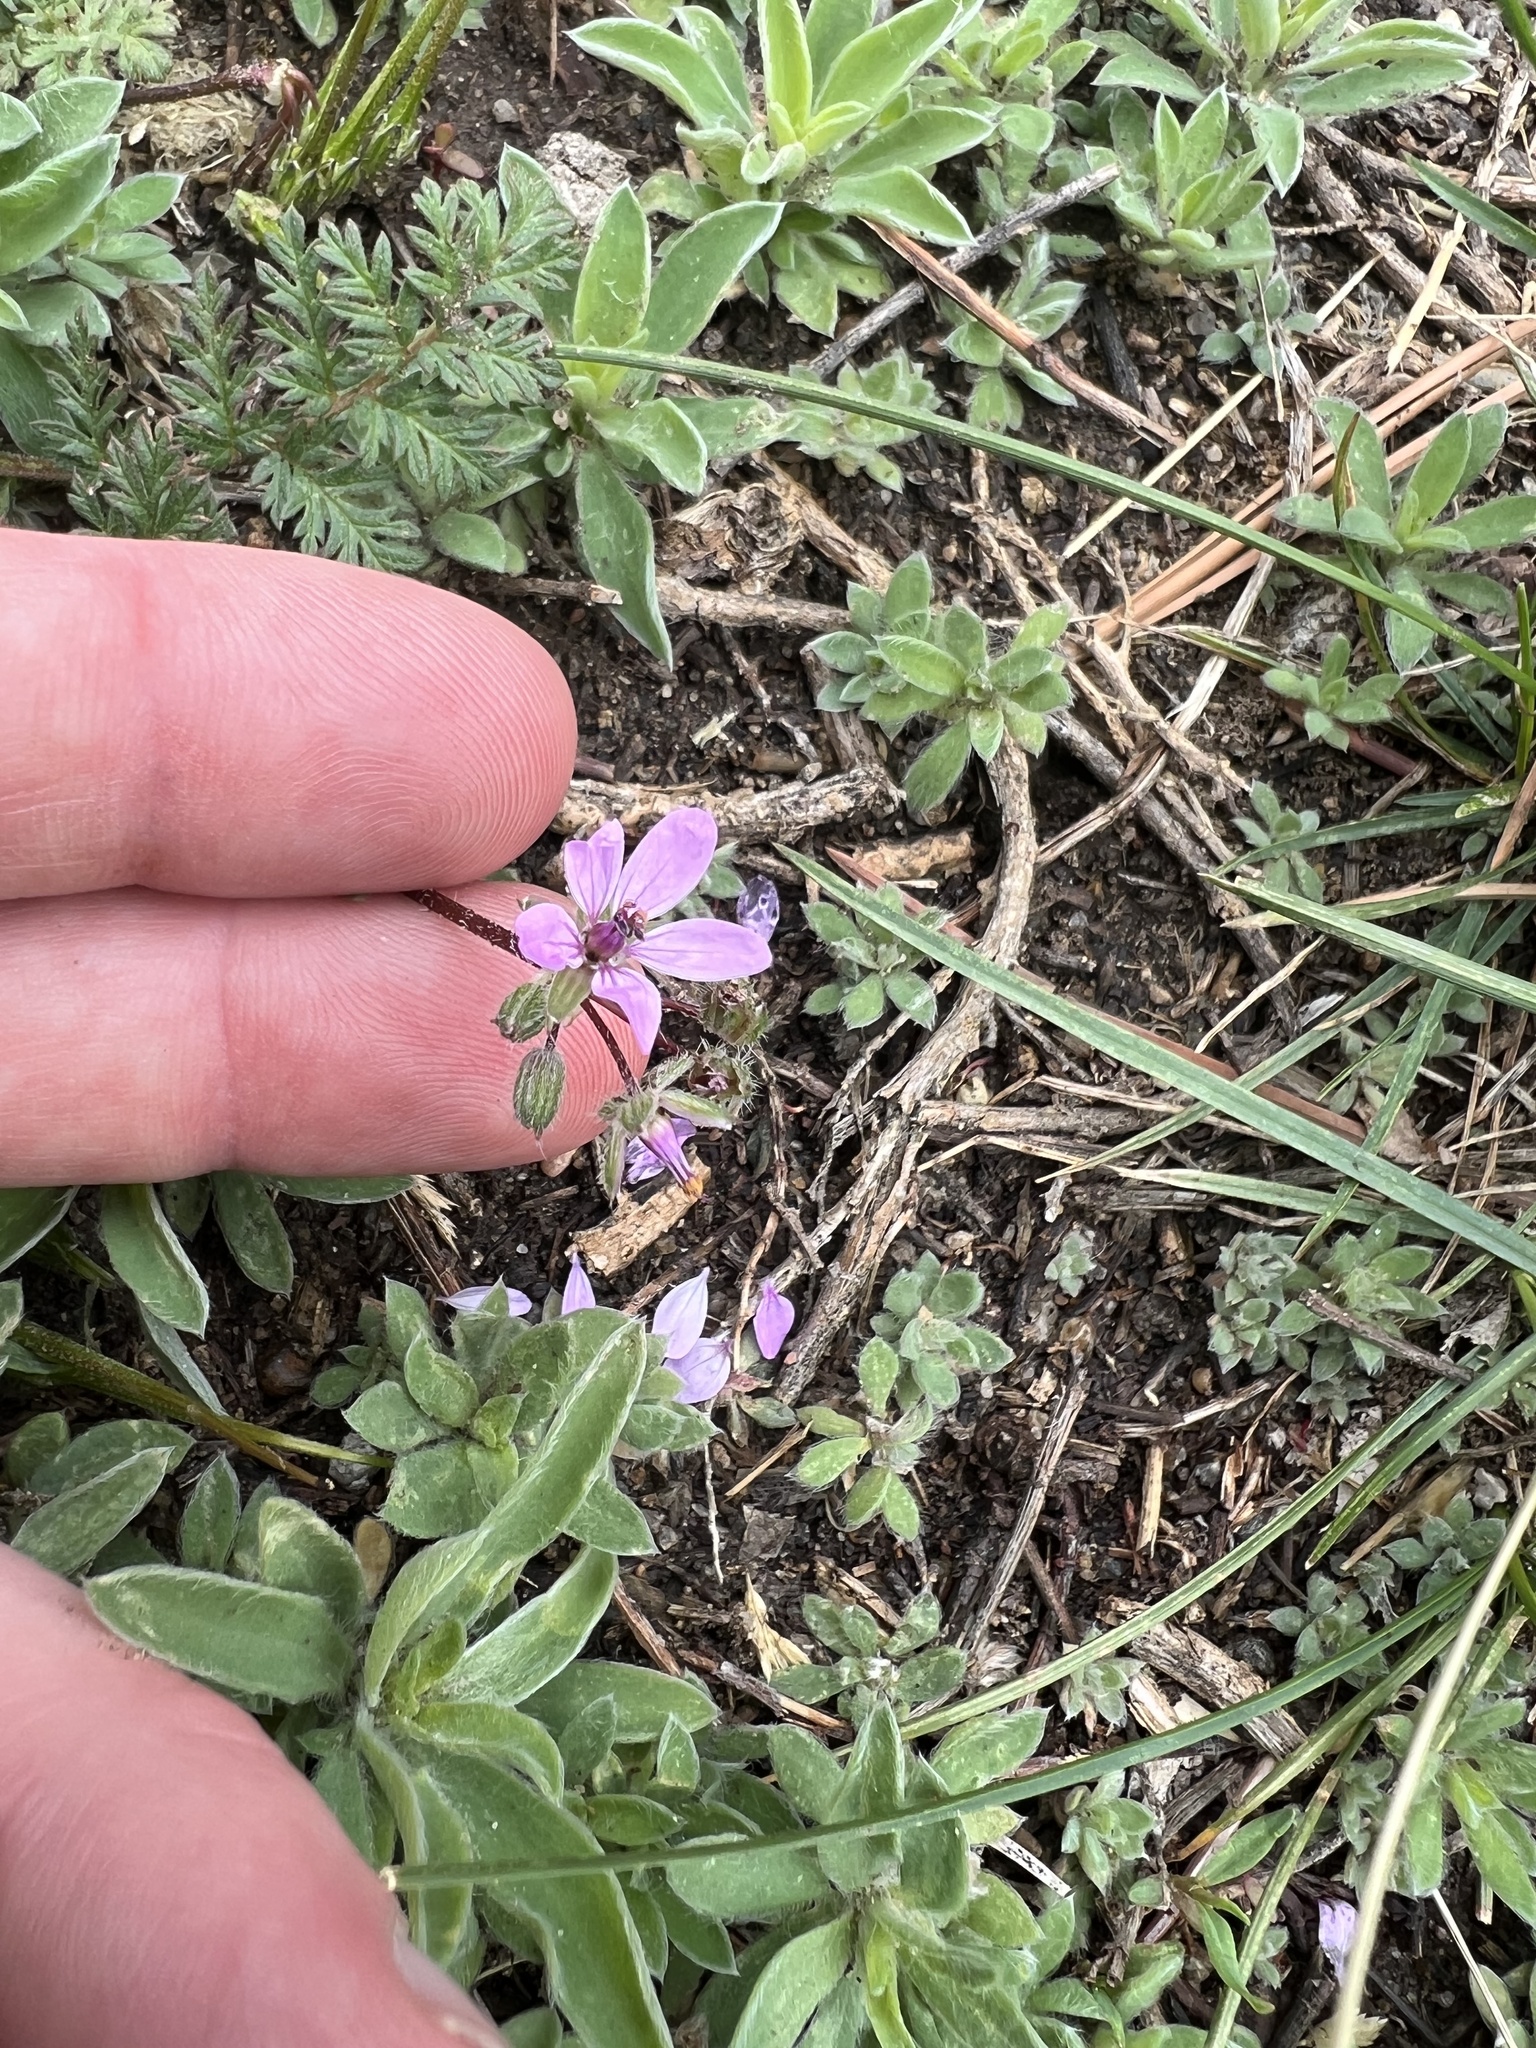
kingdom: Plantae
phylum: Tracheophyta
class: Magnoliopsida
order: Geraniales
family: Geraniaceae
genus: Erodium
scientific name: Erodium cicutarium
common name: Common stork's-bill
